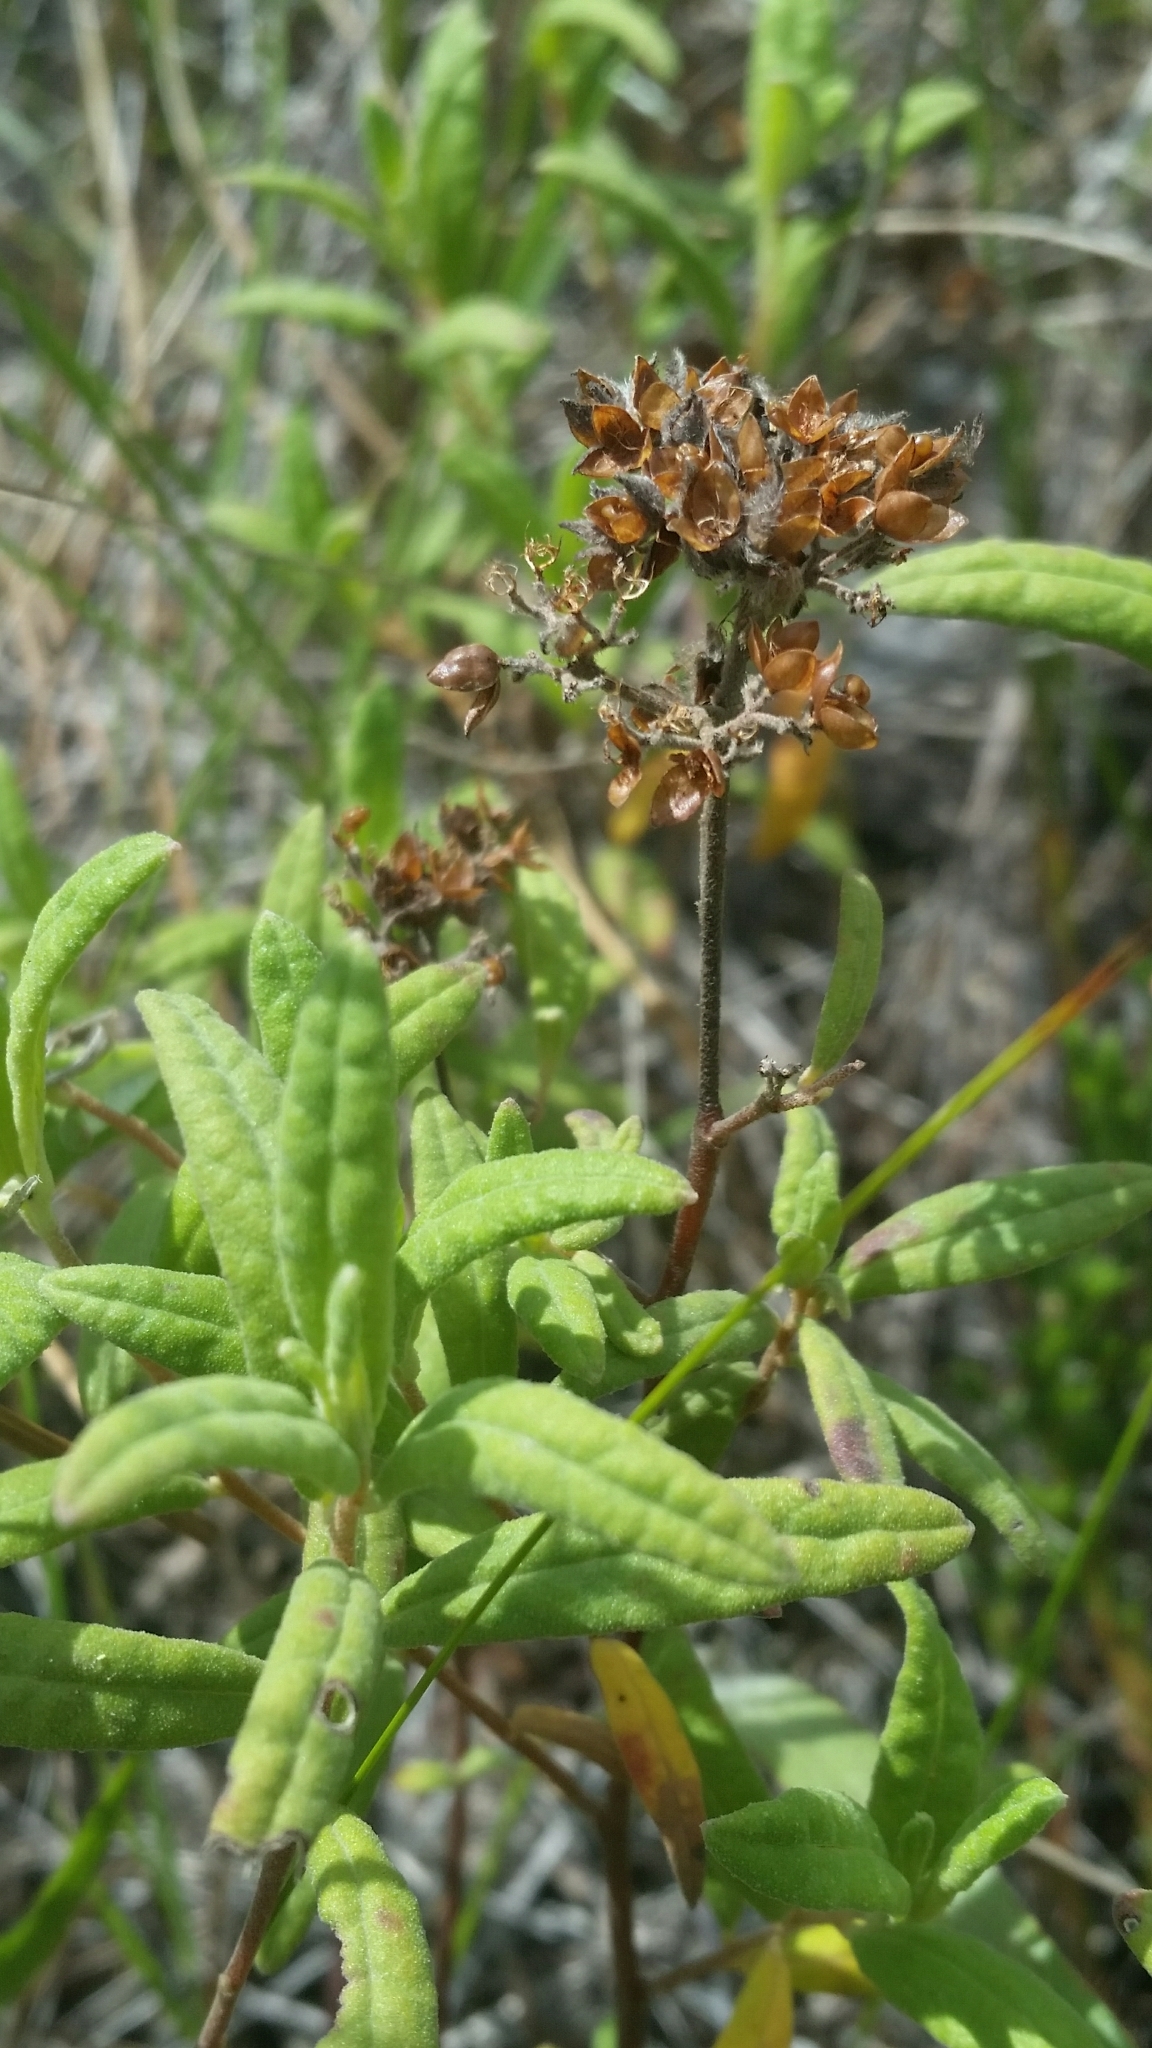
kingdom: Plantae
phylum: Tracheophyta
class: Magnoliopsida
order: Malvales
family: Cistaceae
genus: Crocanthemum
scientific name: Crocanthemum corymbosum
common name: Pinebarren sun-rose
